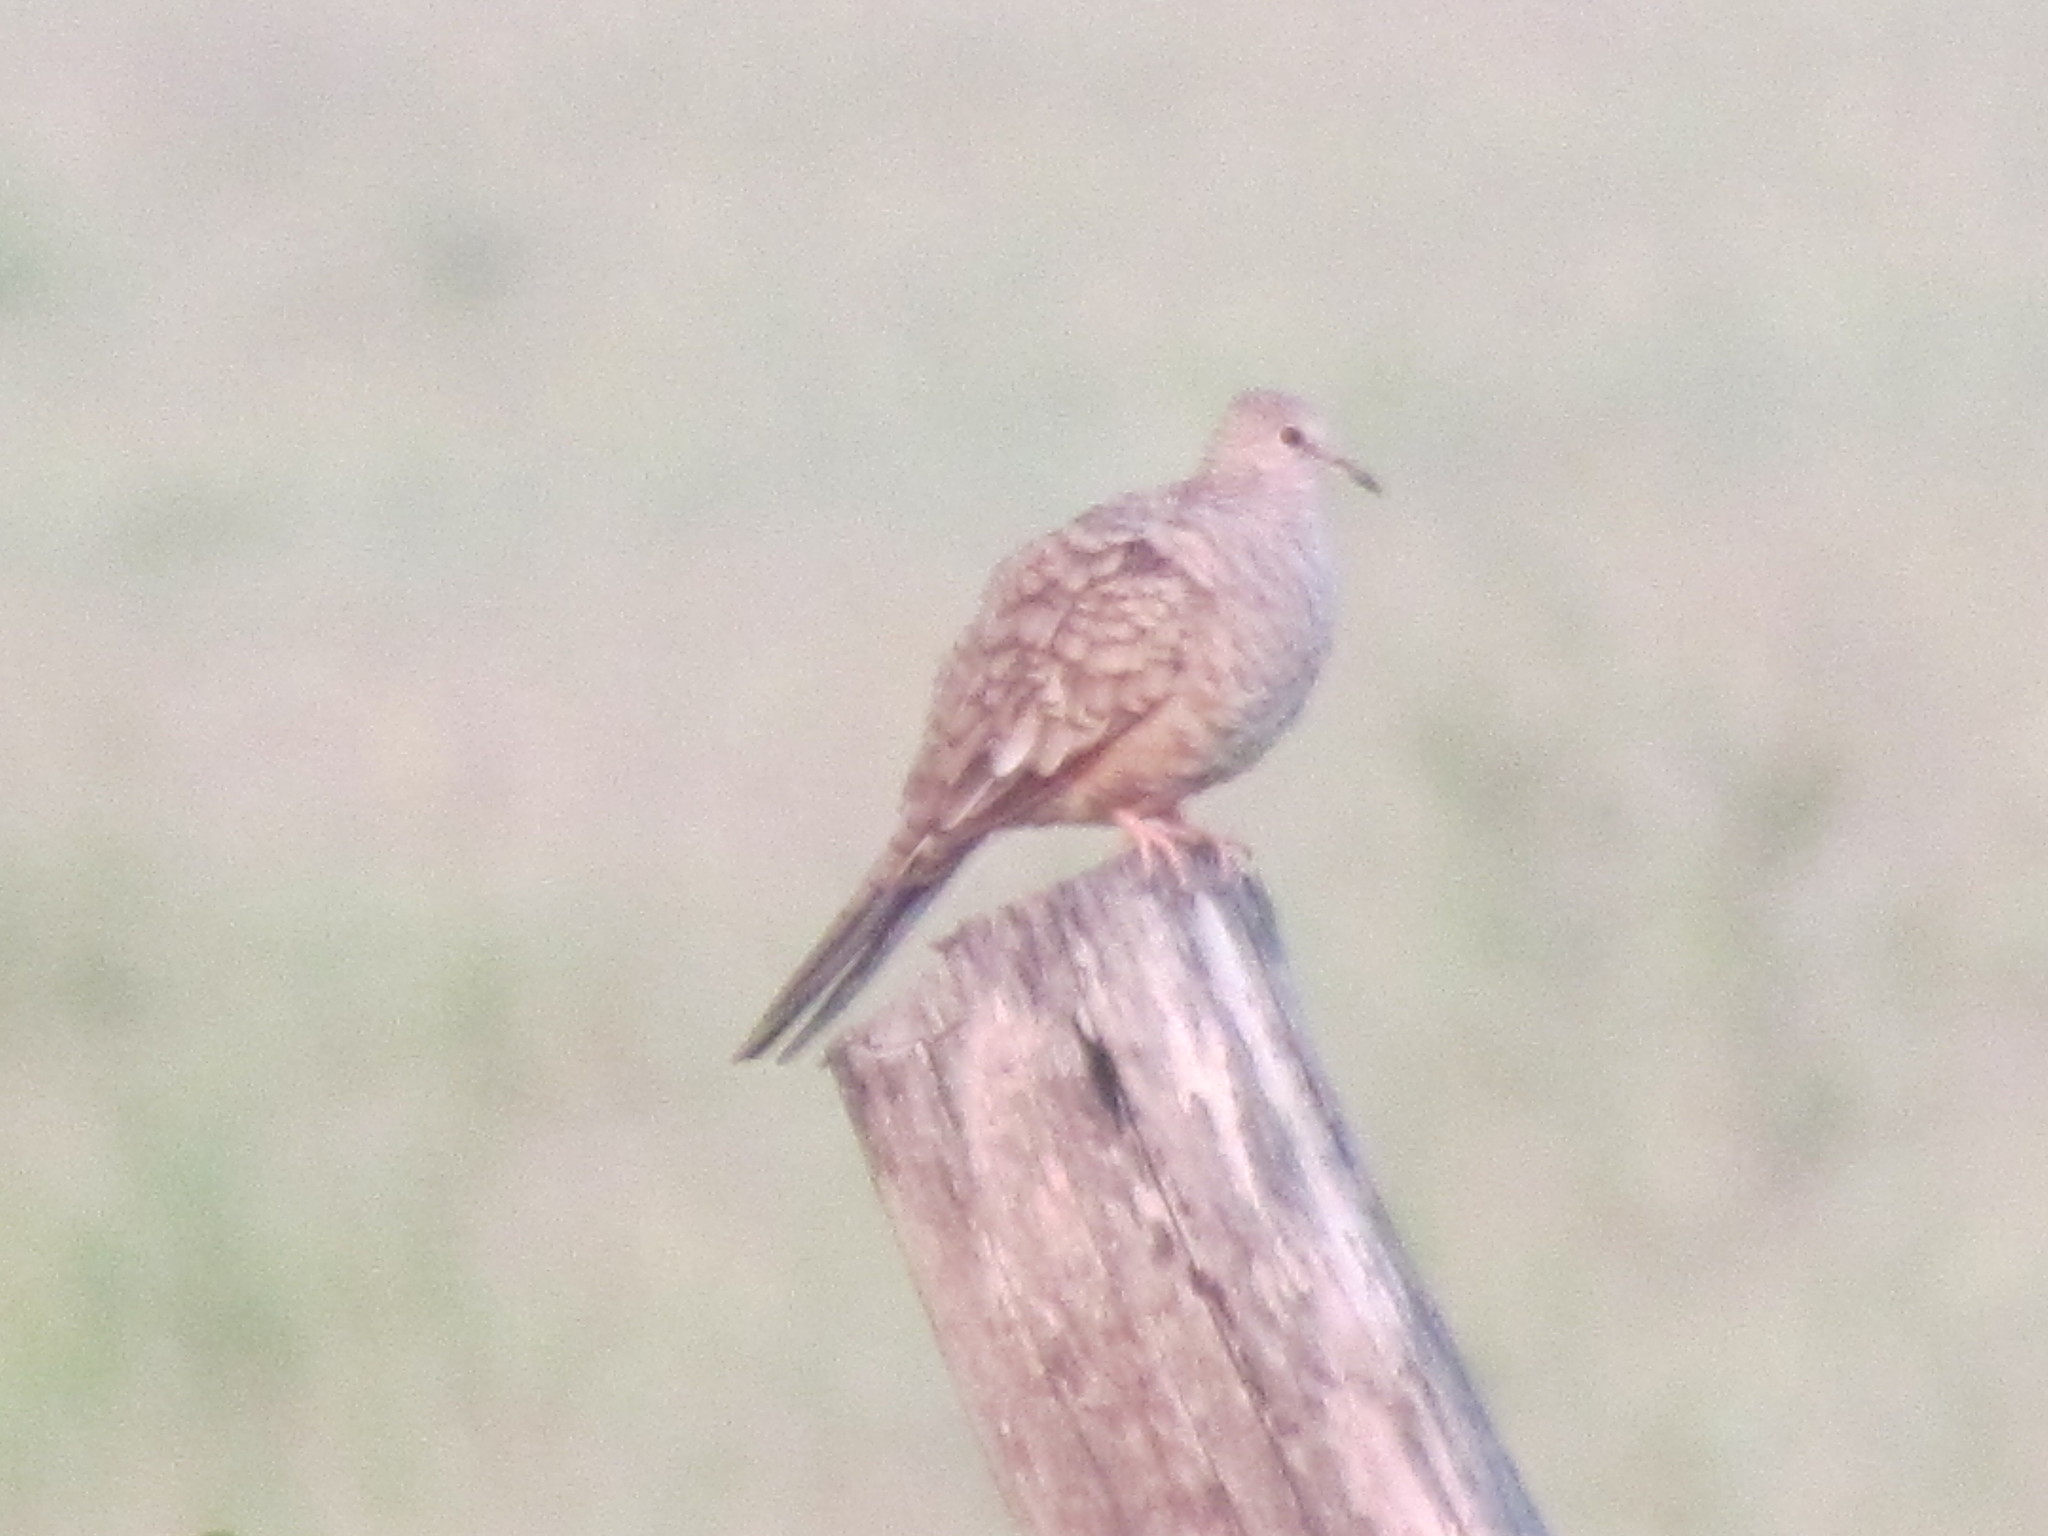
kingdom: Animalia
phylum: Chordata
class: Aves
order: Columbiformes
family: Columbidae
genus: Columbina
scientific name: Columbina inca
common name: Inca dove
